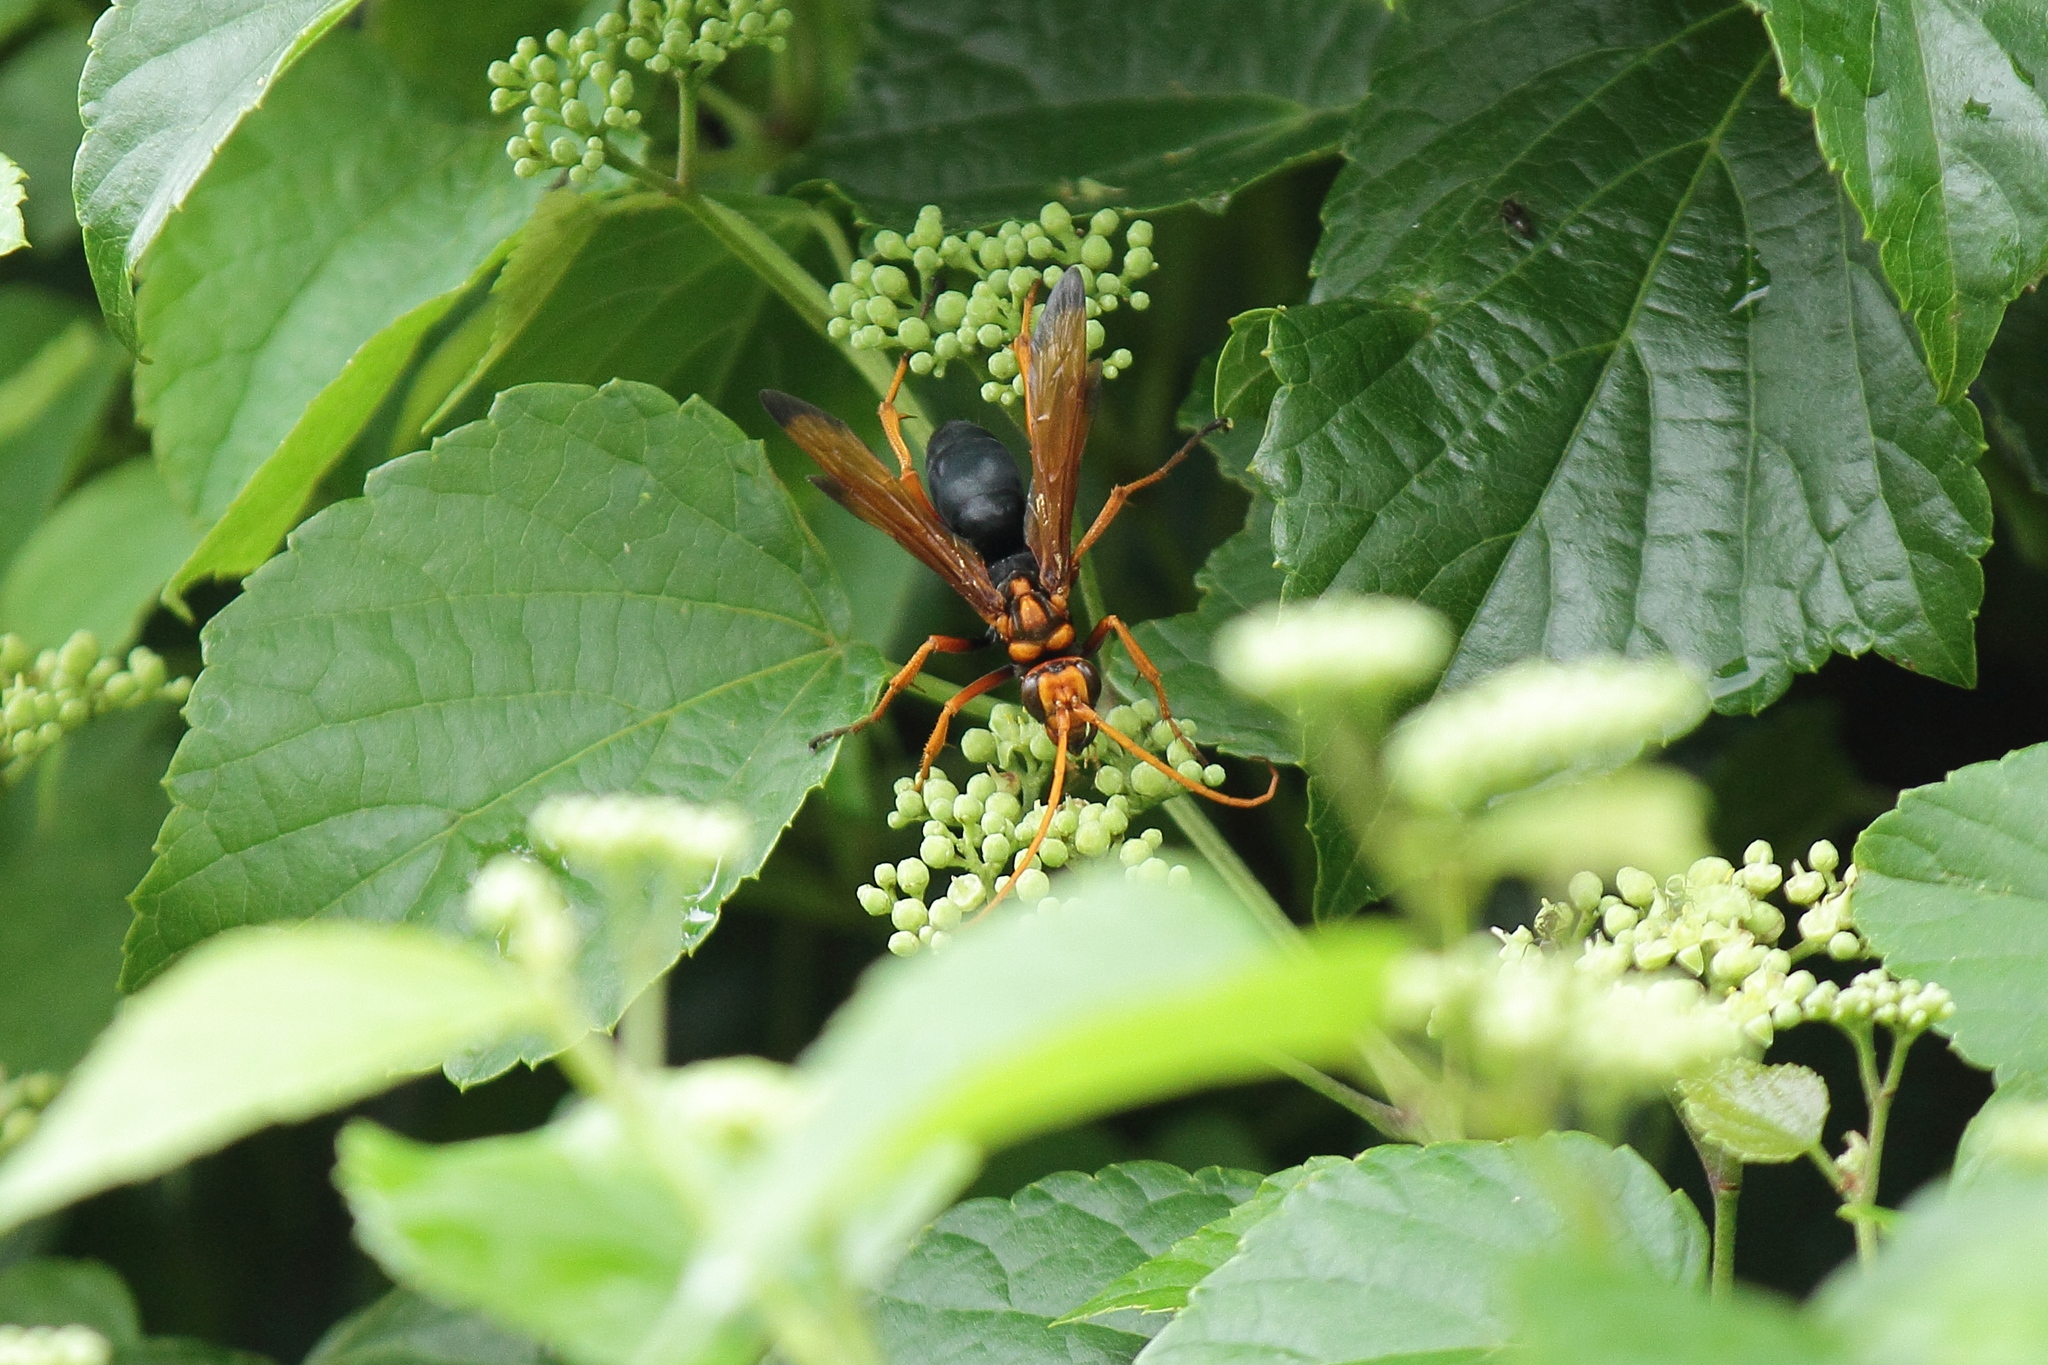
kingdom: Animalia
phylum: Arthropoda
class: Insecta
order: Hymenoptera
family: Pompilidae
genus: Cyphononyx
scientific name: Cyphononyx fulvognathus
